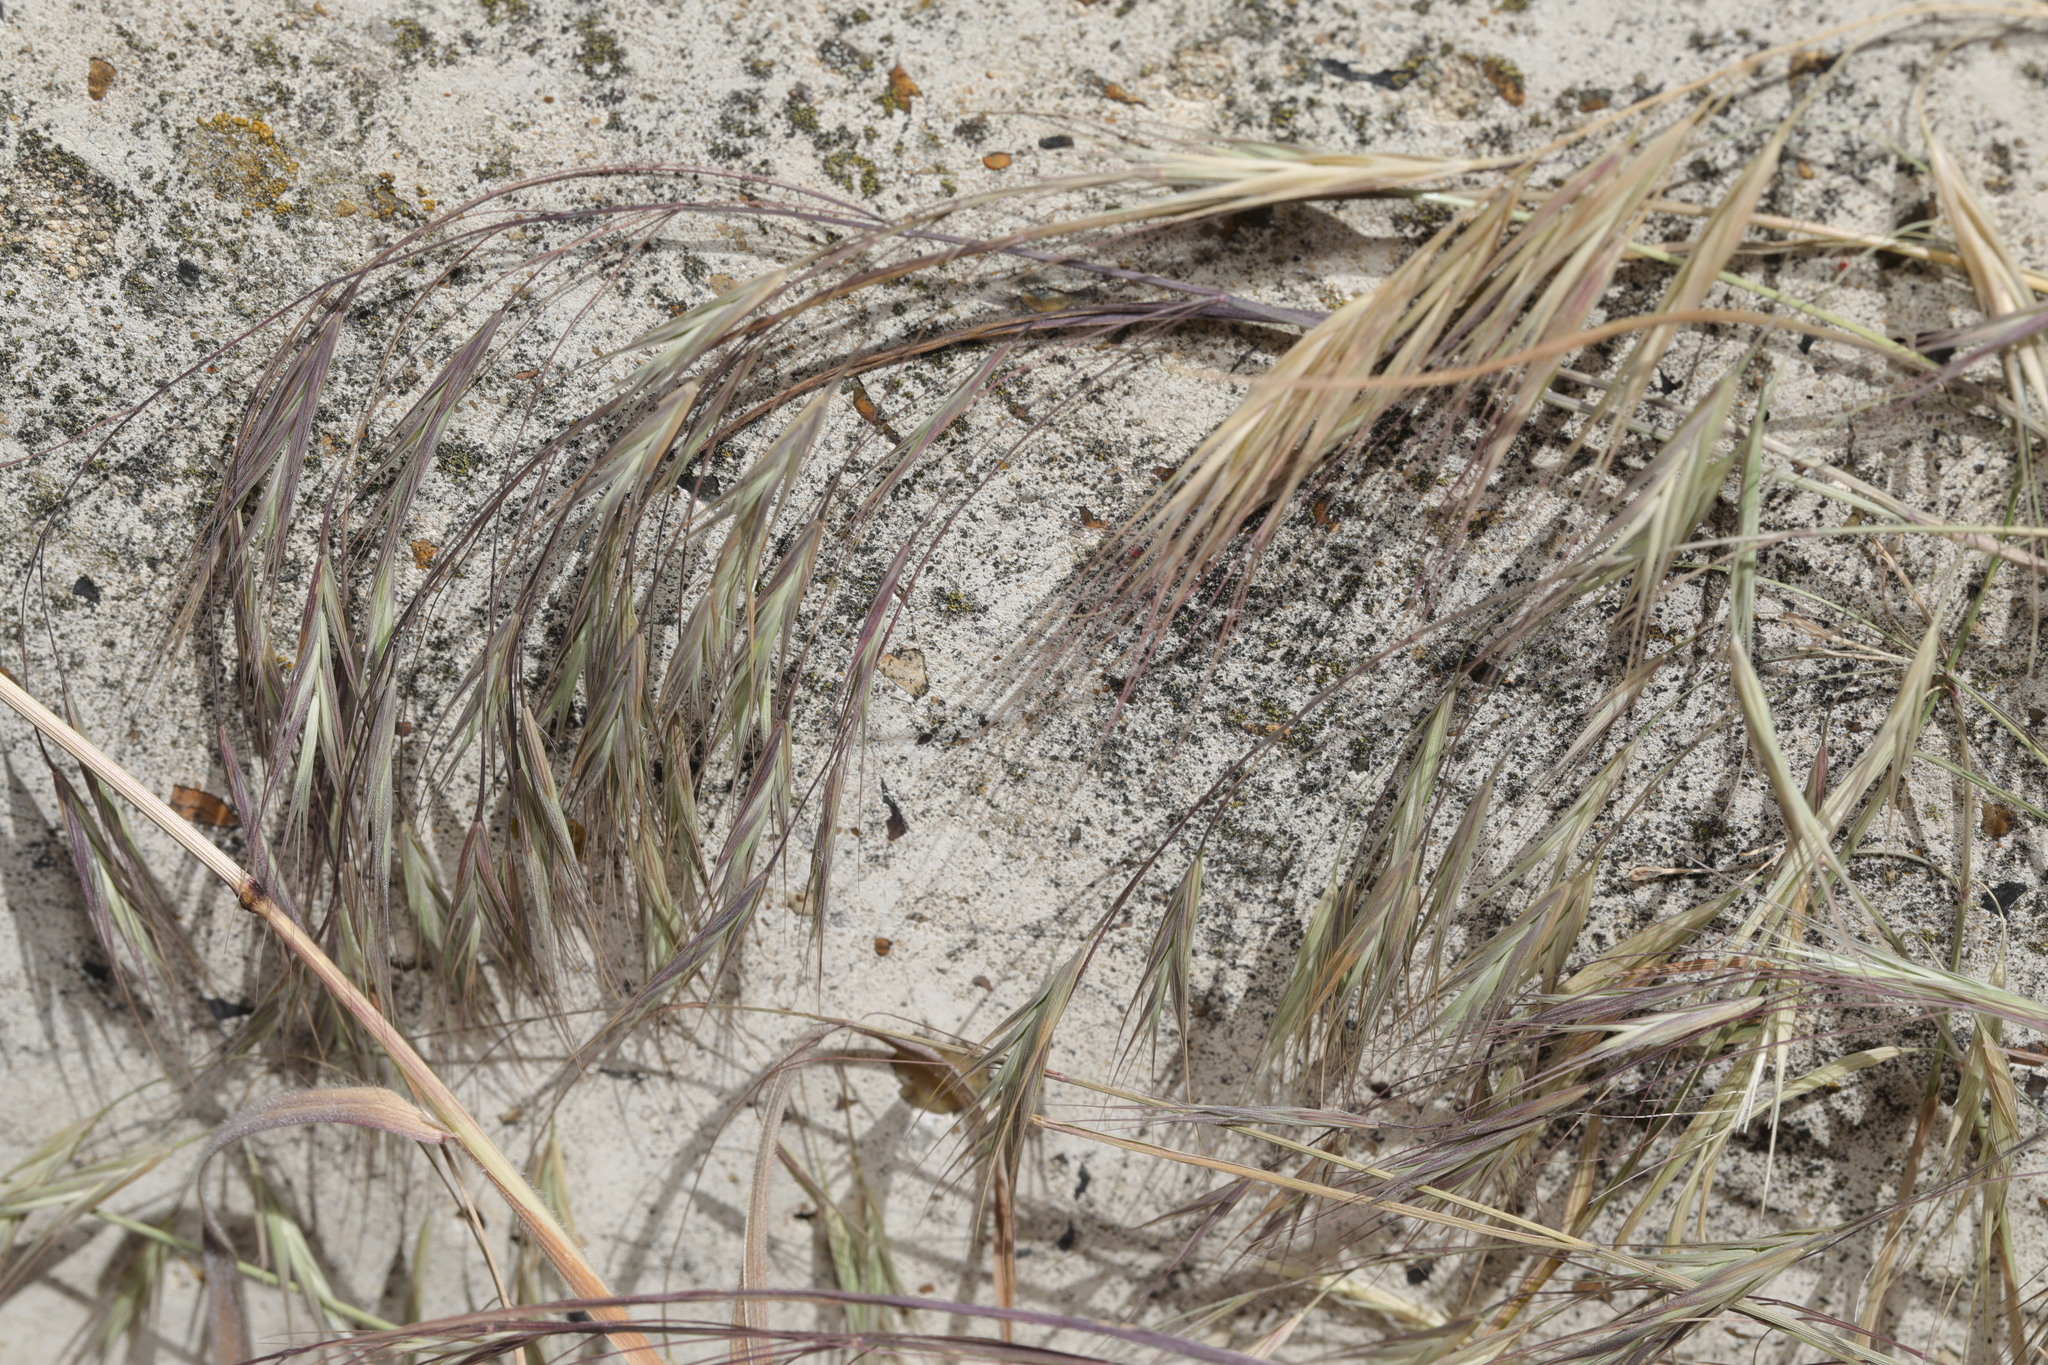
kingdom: Plantae
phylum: Tracheophyta
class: Liliopsida
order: Poales
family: Poaceae
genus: Bromus
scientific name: Bromus sterilis
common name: Poverty brome
